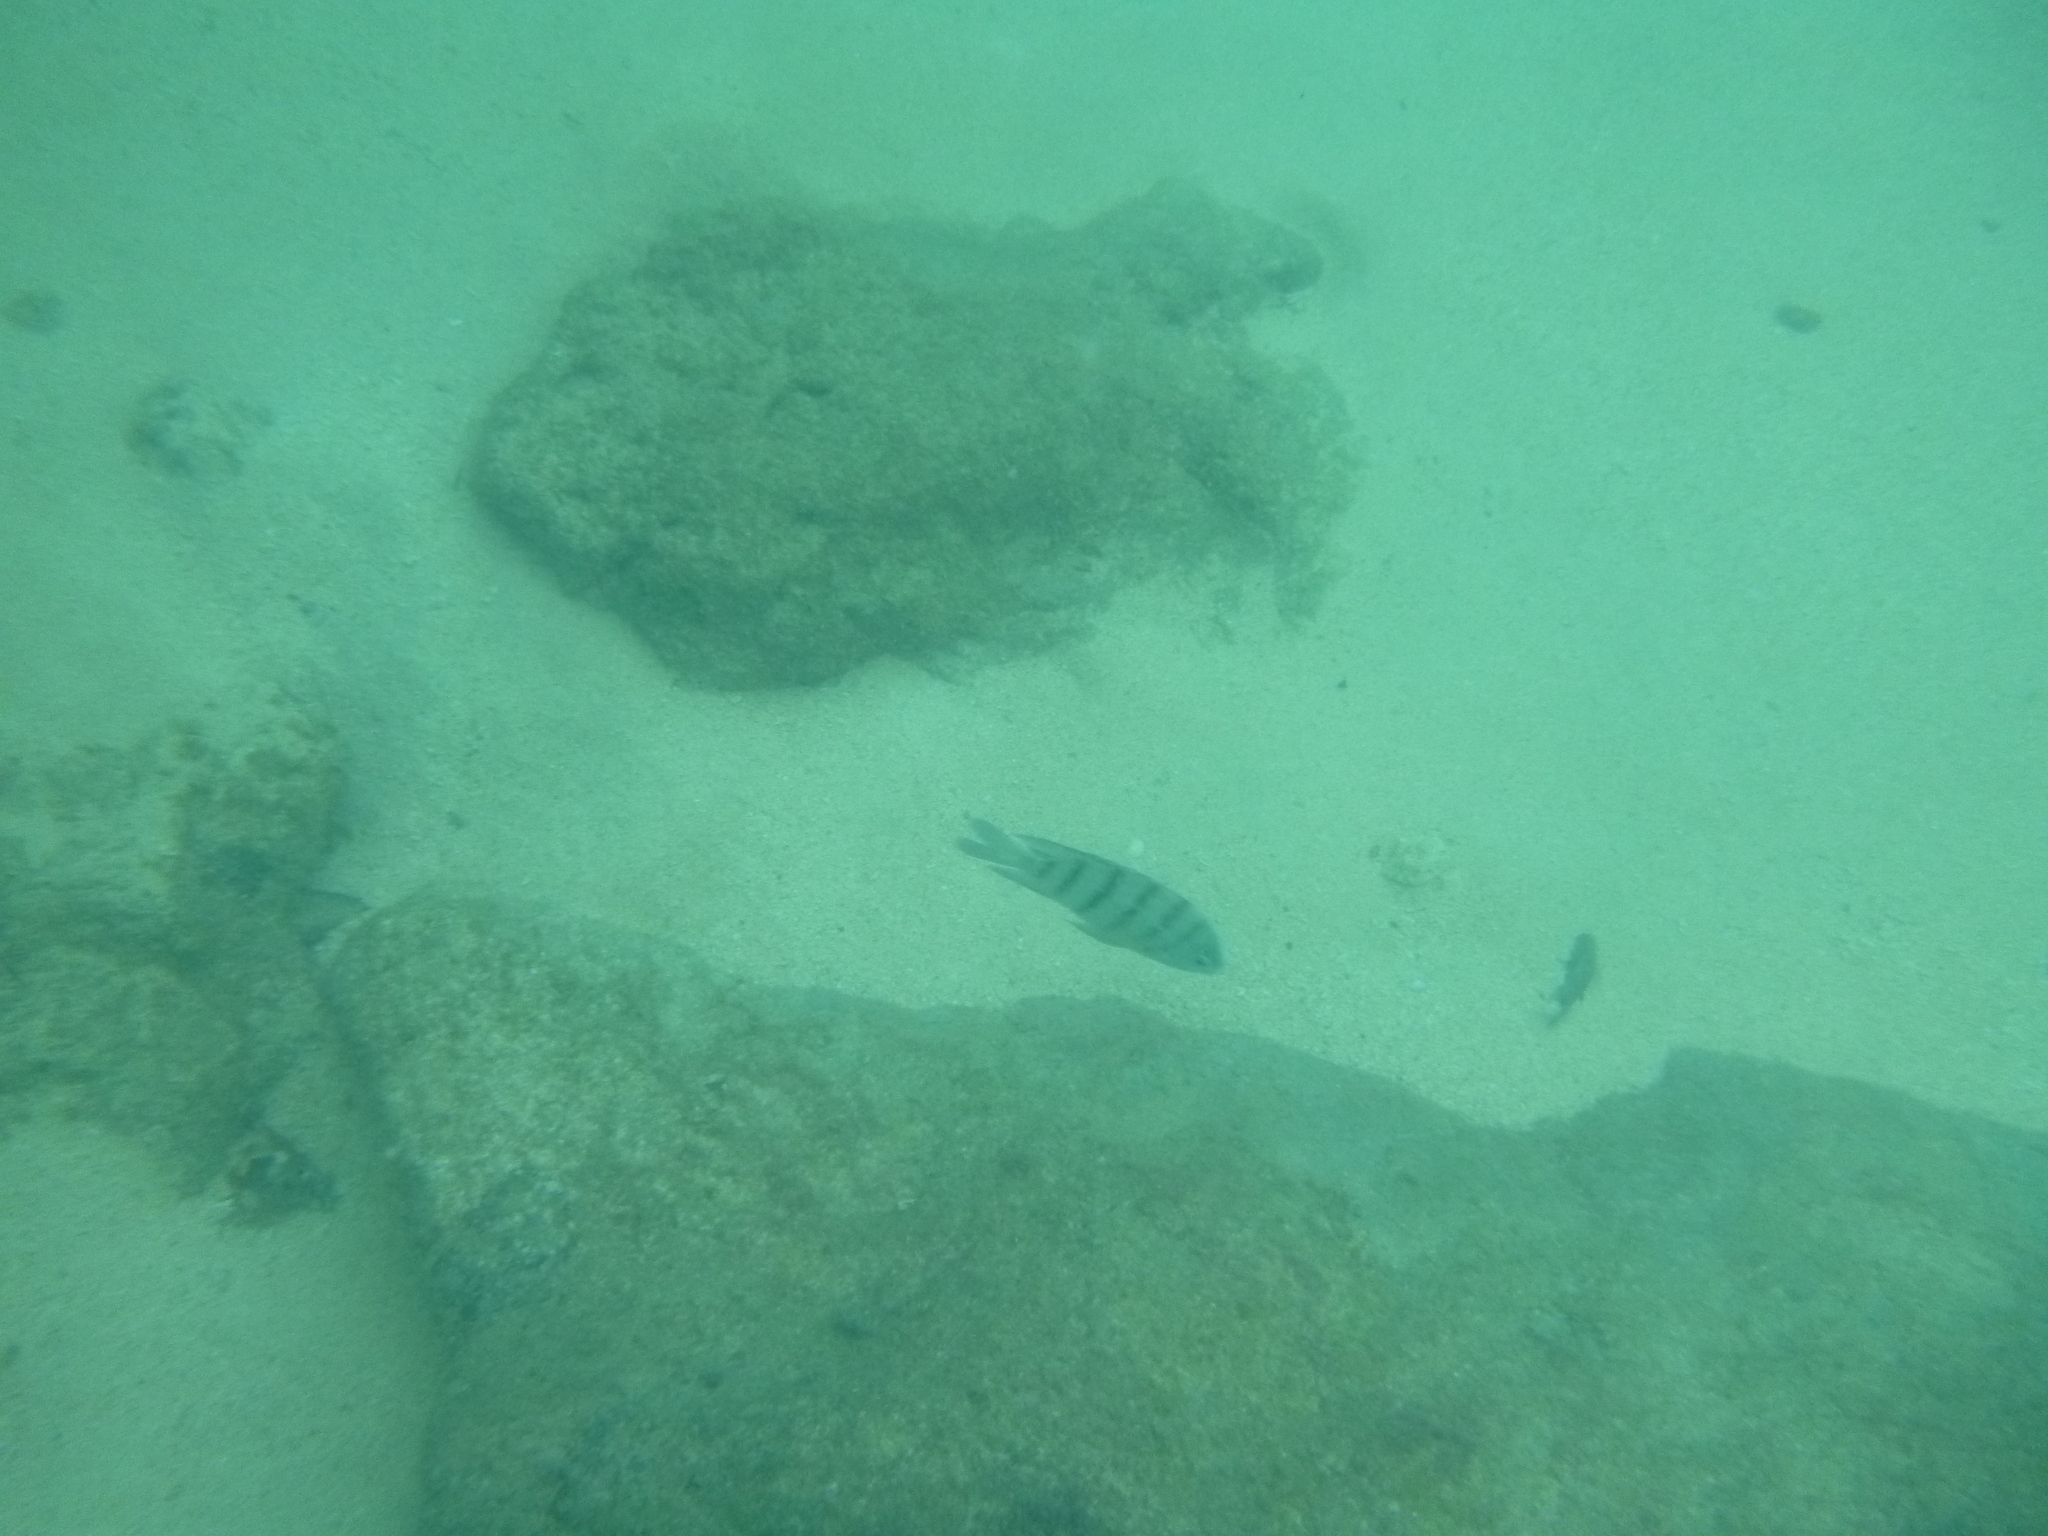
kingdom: Animalia
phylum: Chordata
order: Perciformes
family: Pomacentridae
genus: Abudefduf
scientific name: Abudefduf bengalensis
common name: Bengal sergeant
